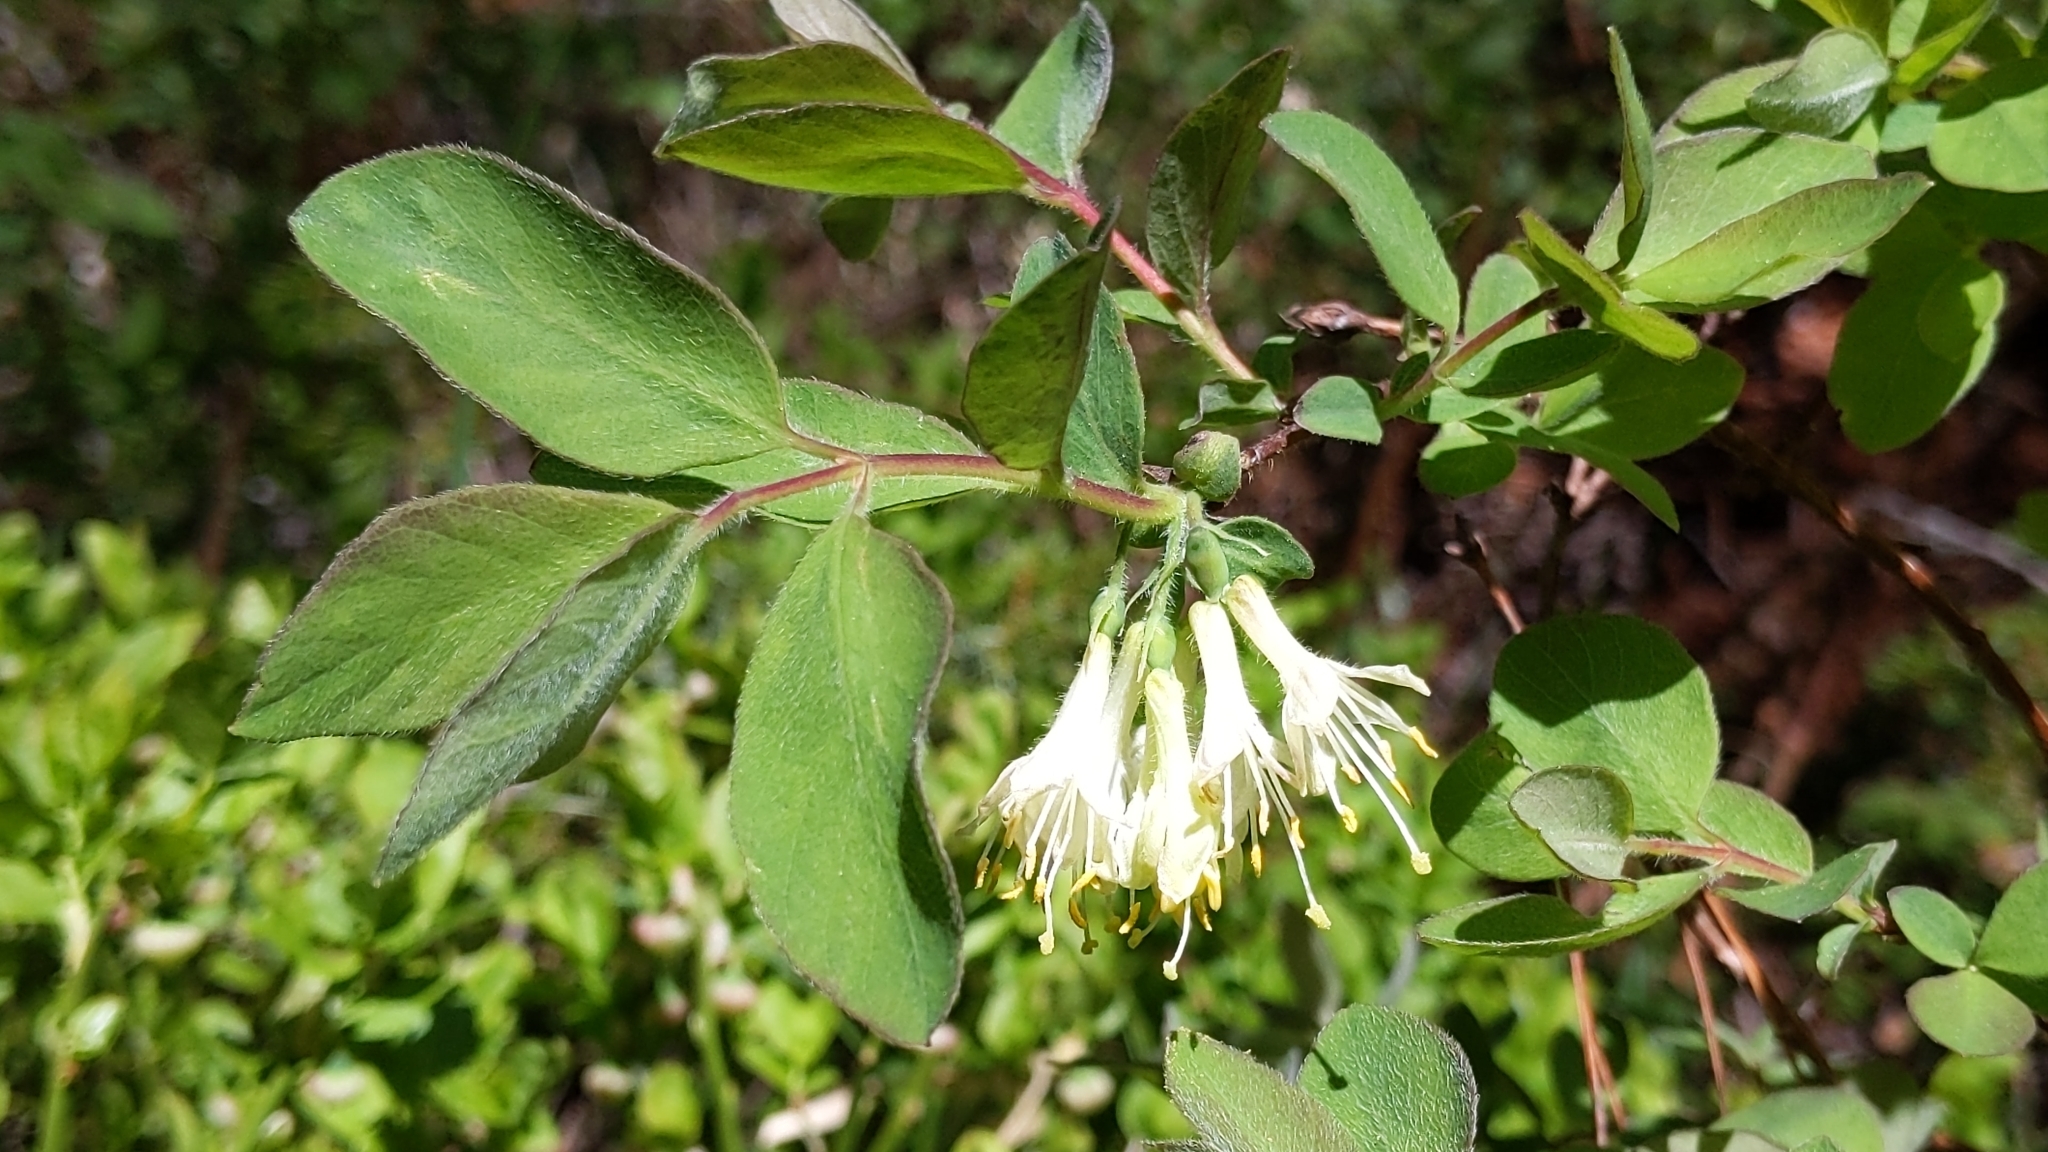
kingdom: Plantae
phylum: Tracheophyta
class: Magnoliopsida
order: Dipsacales
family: Caprifoliaceae
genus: Lonicera
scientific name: Lonicera caerulea
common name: Blue honeysuckle
